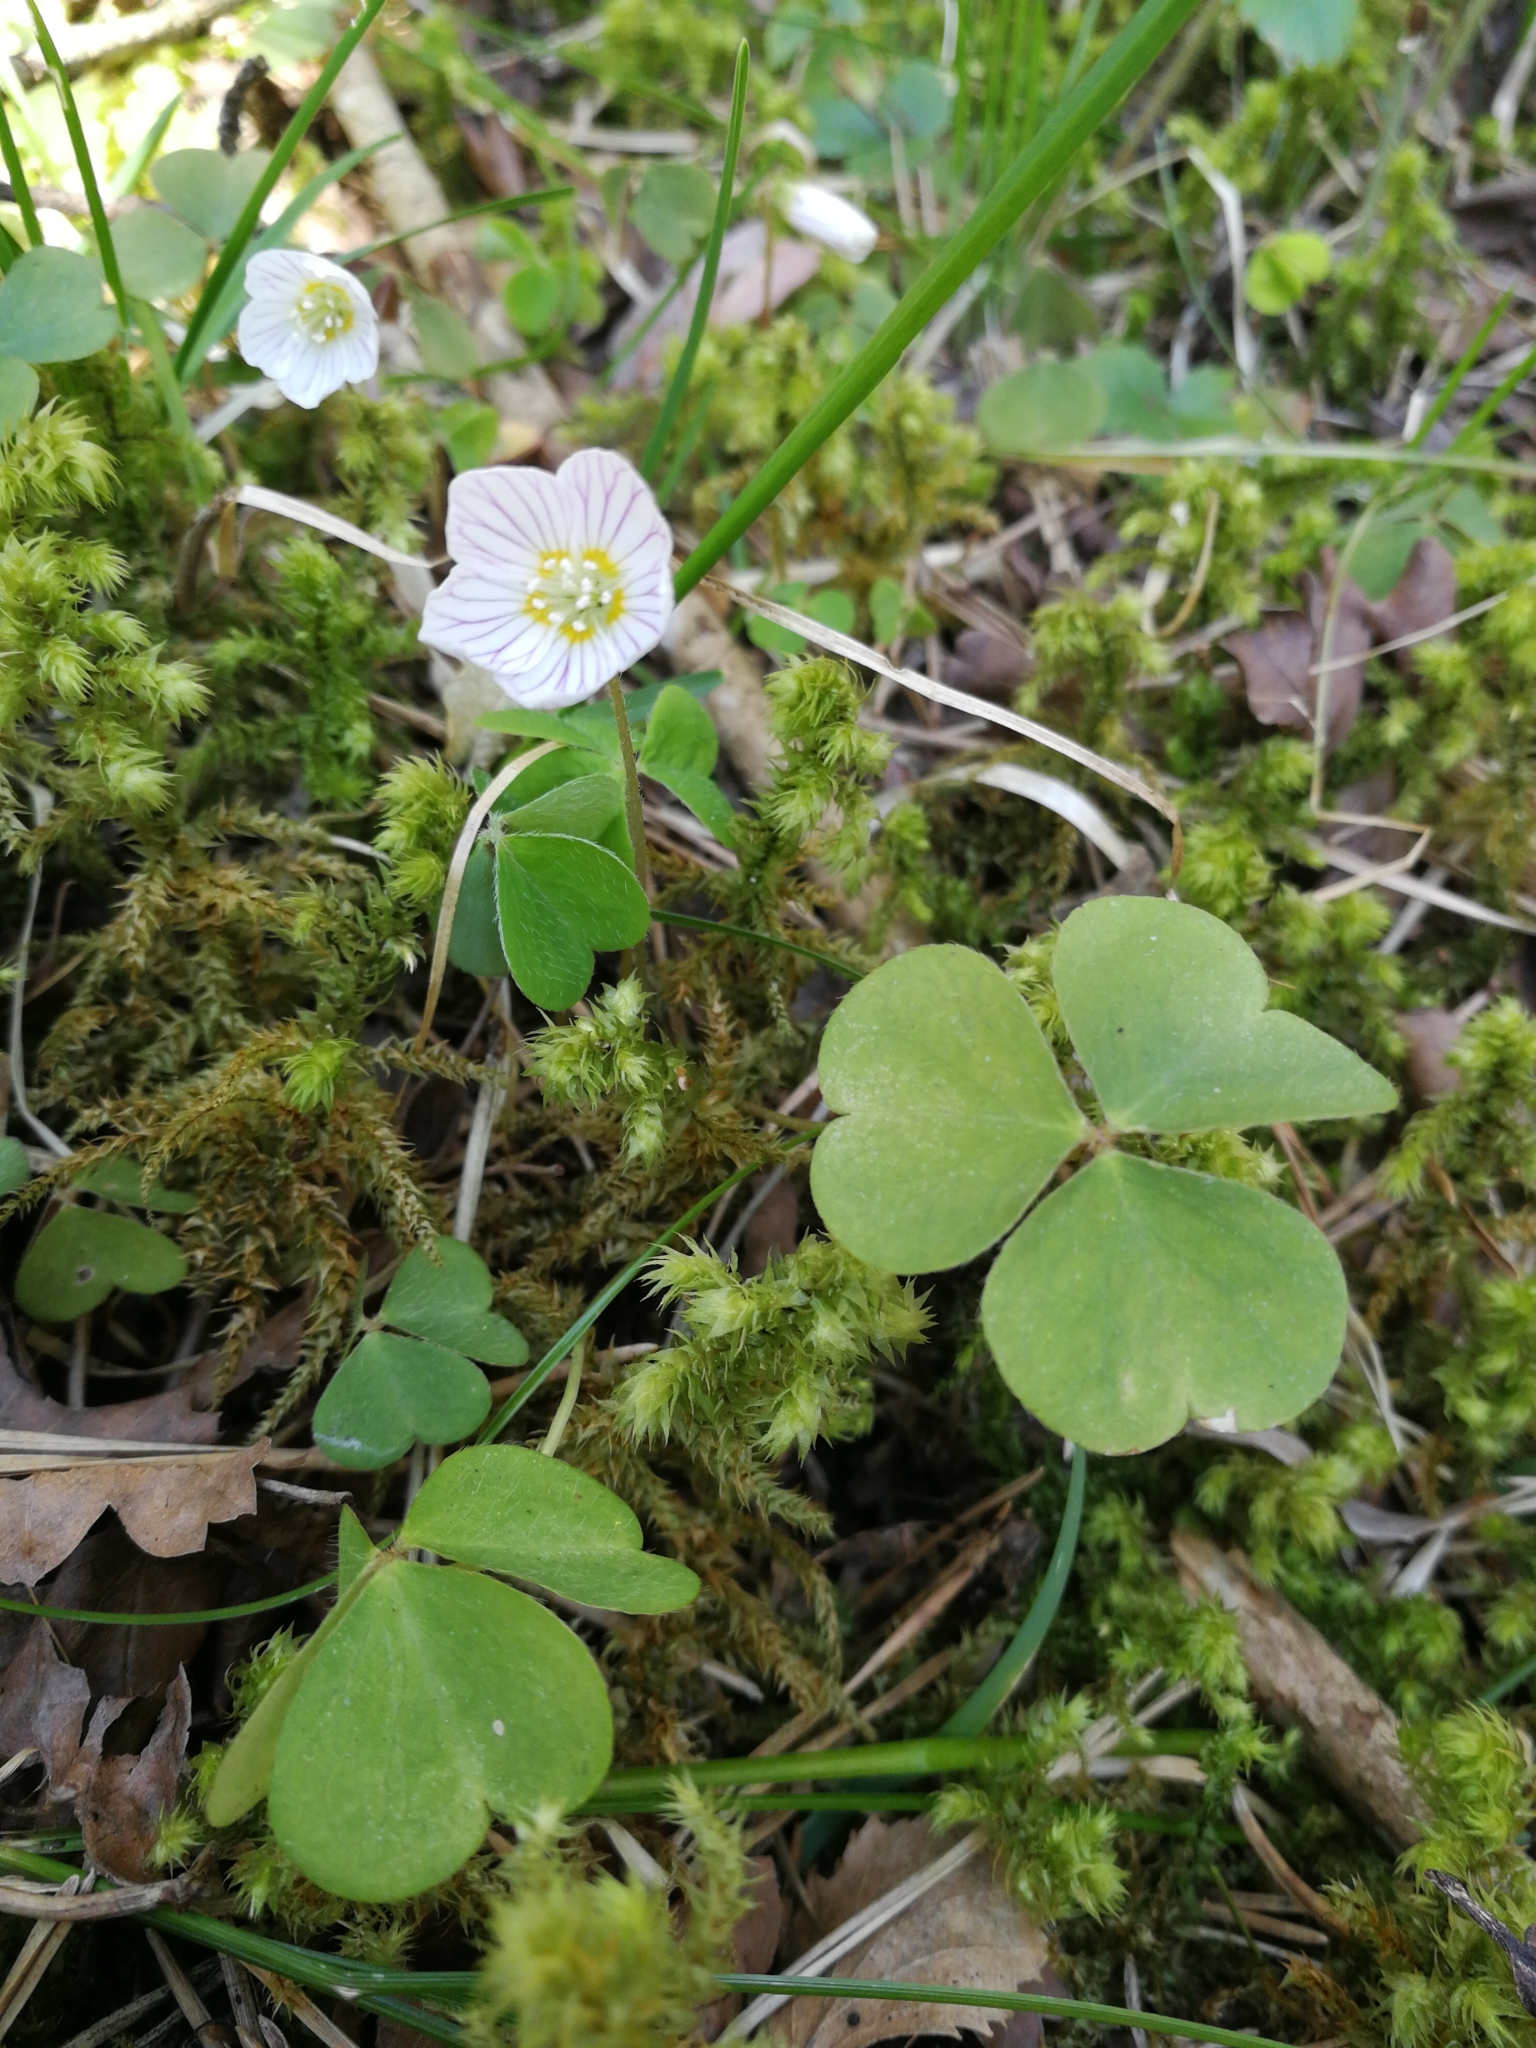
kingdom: Plantae
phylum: Tracheophyta
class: Magnoliopsida
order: Oxalidales
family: Oxalidaceae
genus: Oxalis
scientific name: Oxalis acetosella
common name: Wood-sorrel
